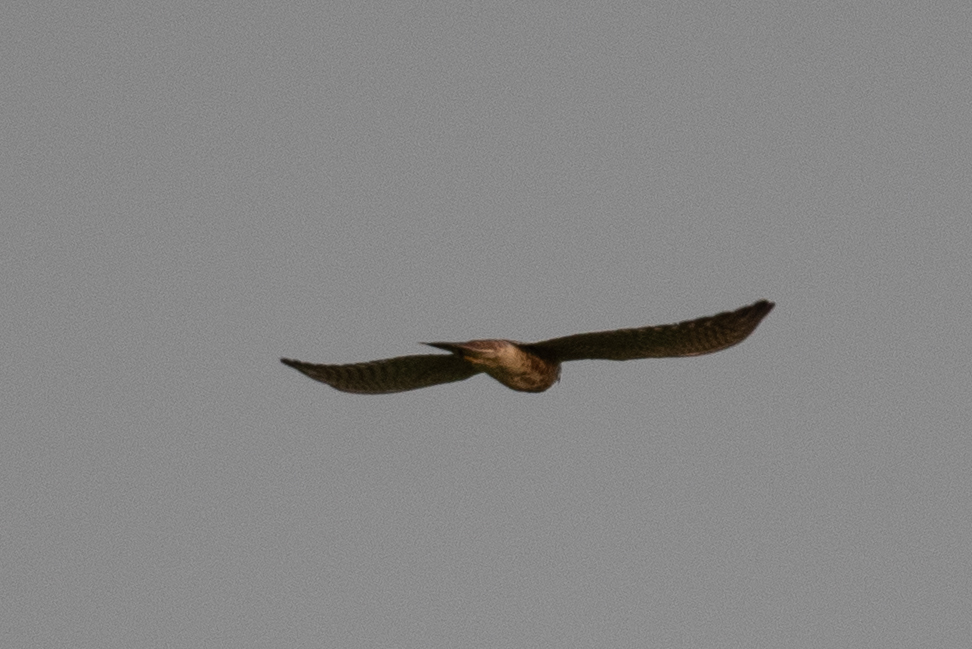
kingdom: Animalia
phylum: Chordata
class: Aves
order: Falconiformes
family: Falconidae
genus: Falco
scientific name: Falco sparverius
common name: American kestrel
